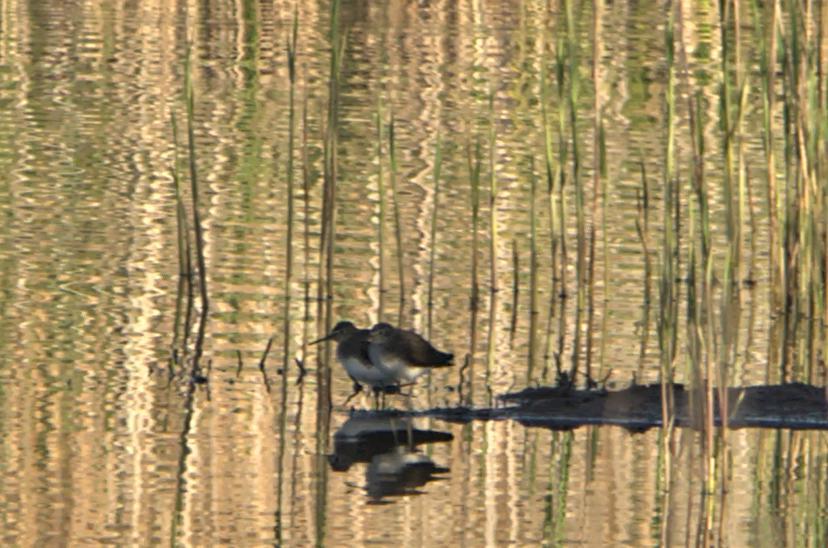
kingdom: Animalia
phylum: Chordata
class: Aves
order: Charadriiformes
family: Scolopacidae
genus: Tringa
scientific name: Tringa ochropus
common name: Green sandpiper
